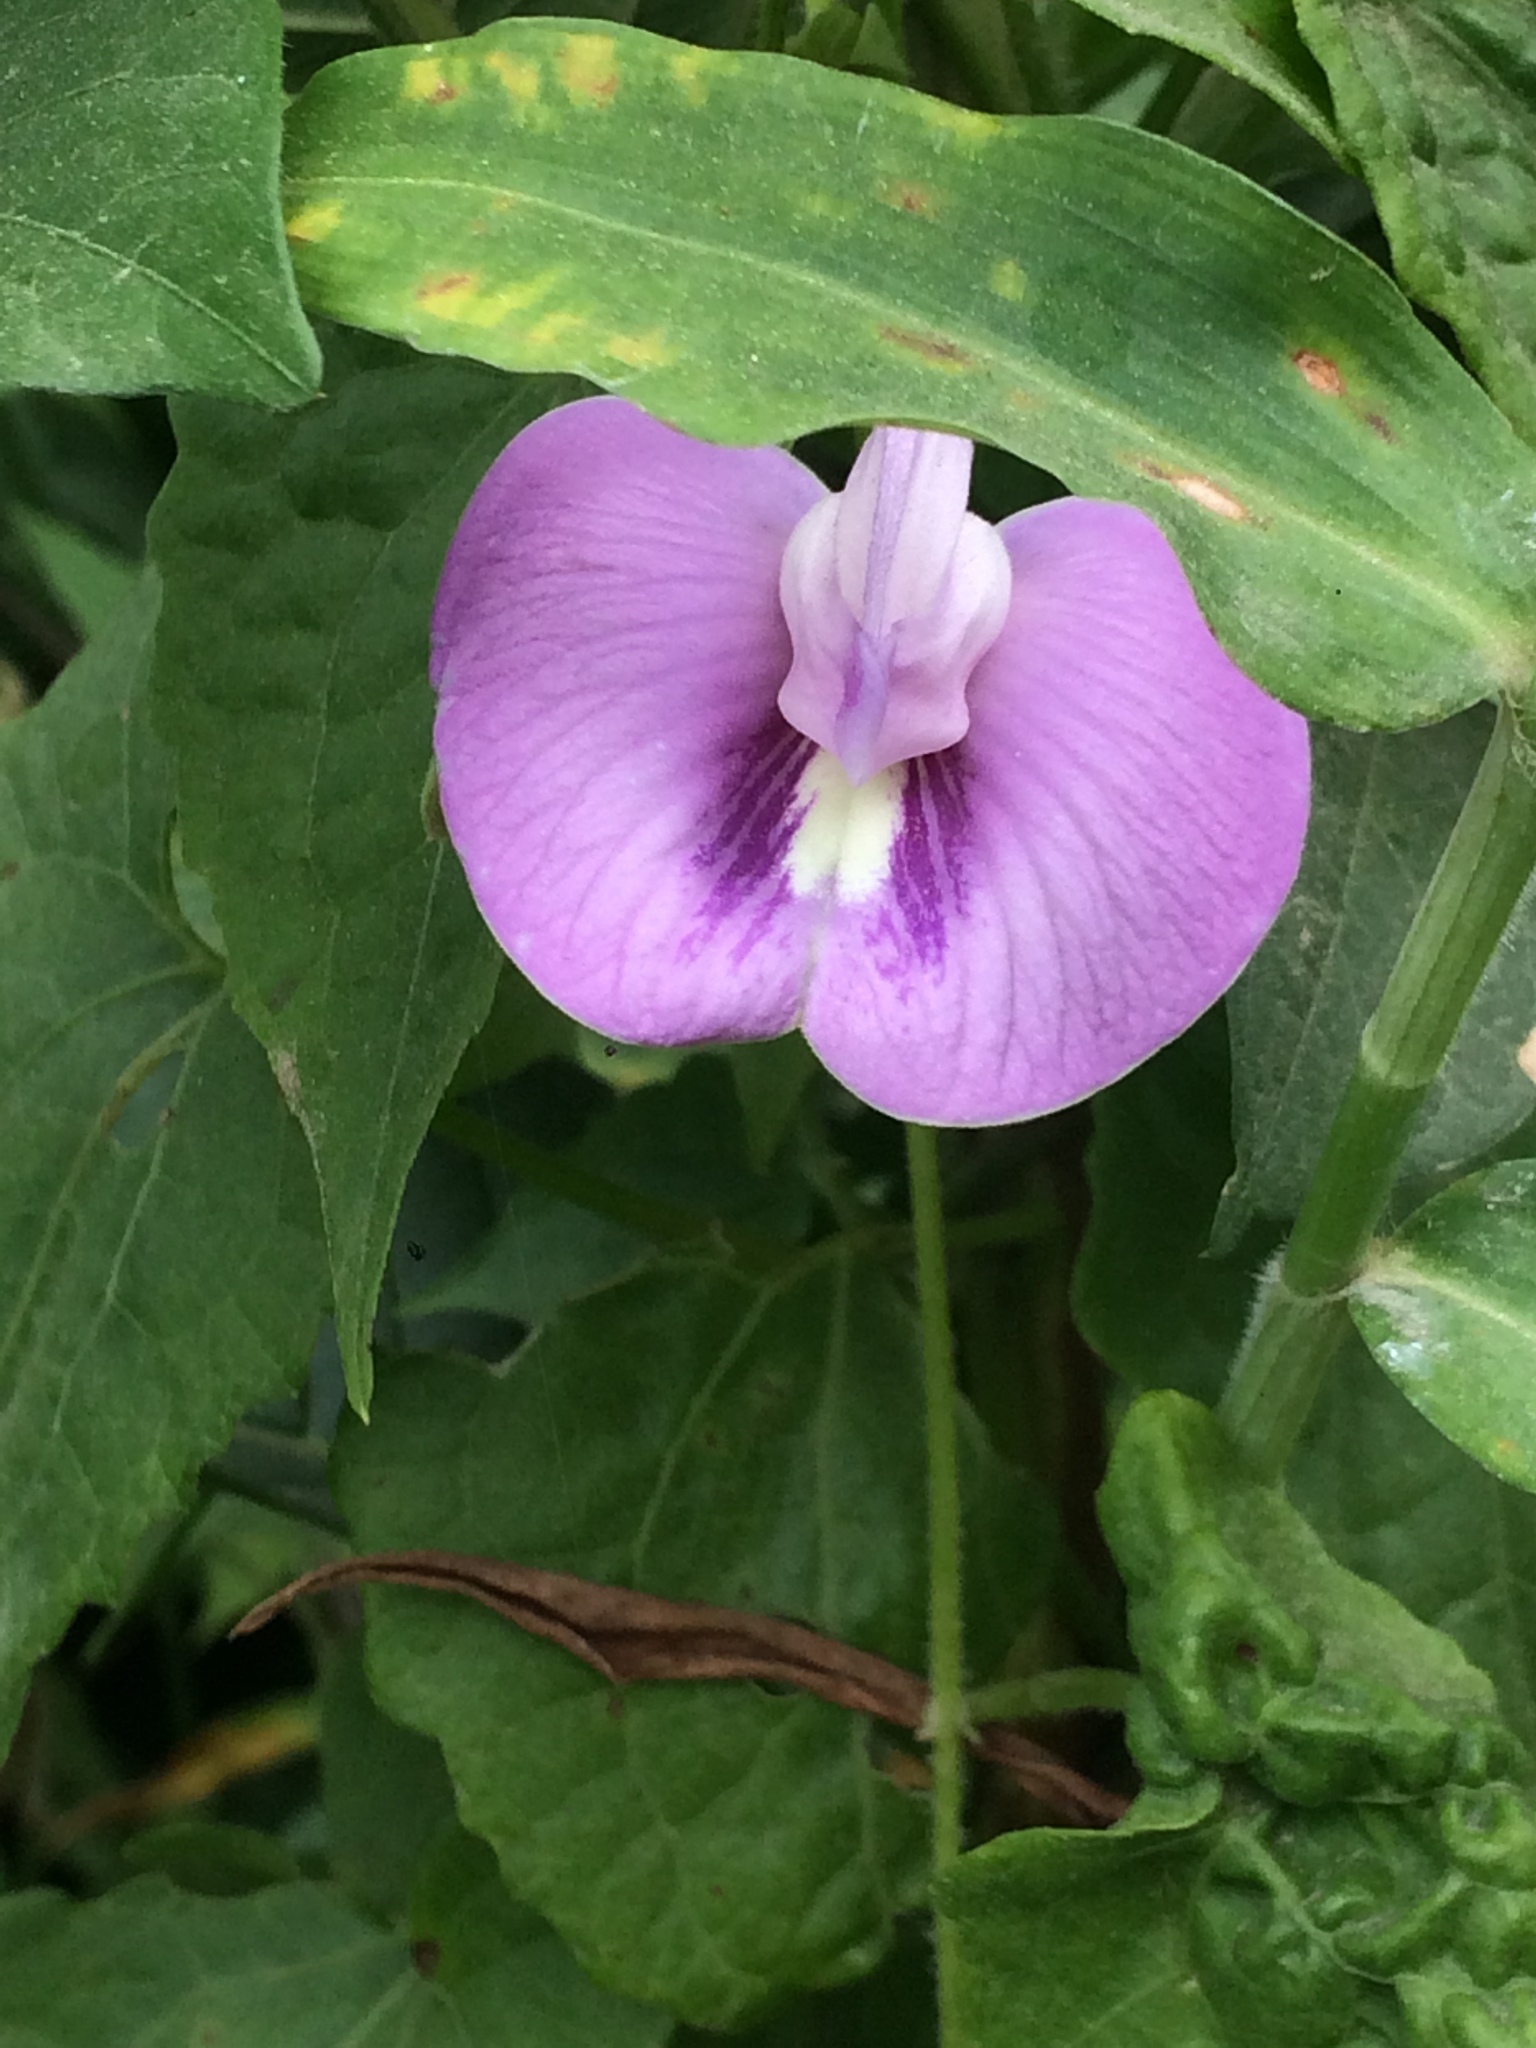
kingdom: Plantae
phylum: Tracheophyta
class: Magnoliopsida
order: Fabales
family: Fabaceae
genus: Centrosema
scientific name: Centrosema pubescens
